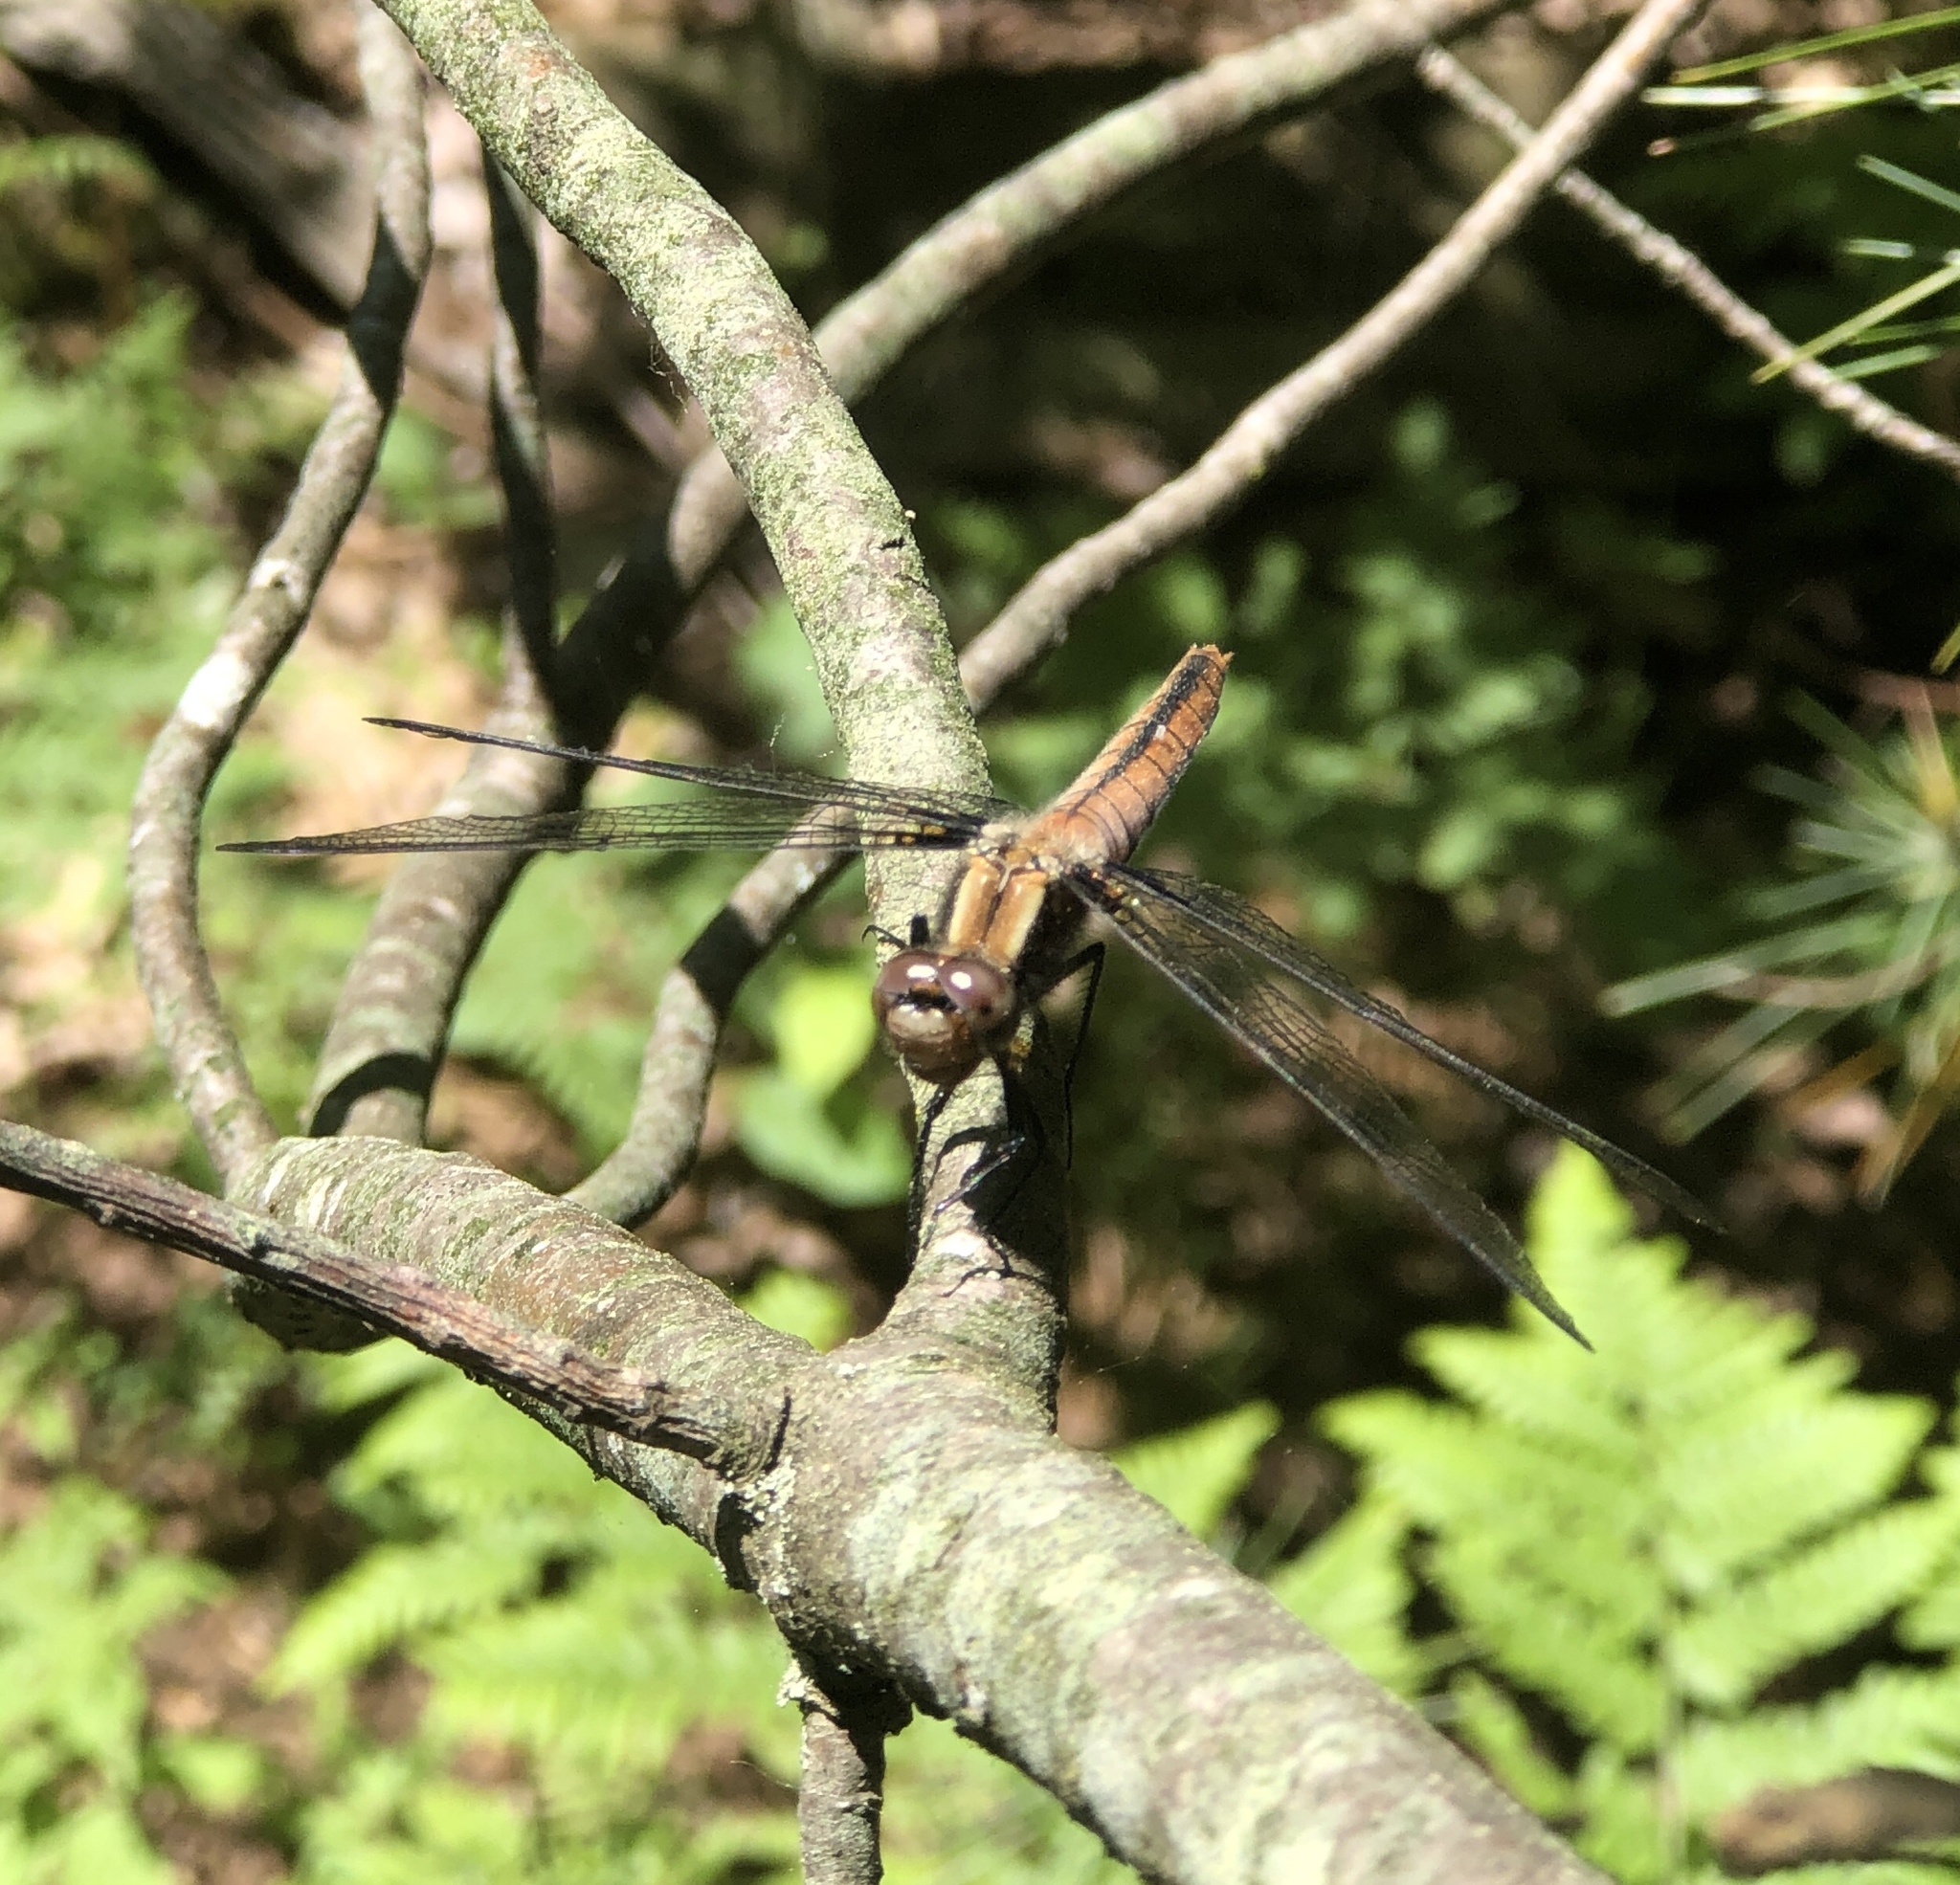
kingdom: Animalia
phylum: Arthropoda
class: Insecta
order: Odonata
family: Libellulidae
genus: Ladona
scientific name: Ladona julia
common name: Chalk-fronted corporal
